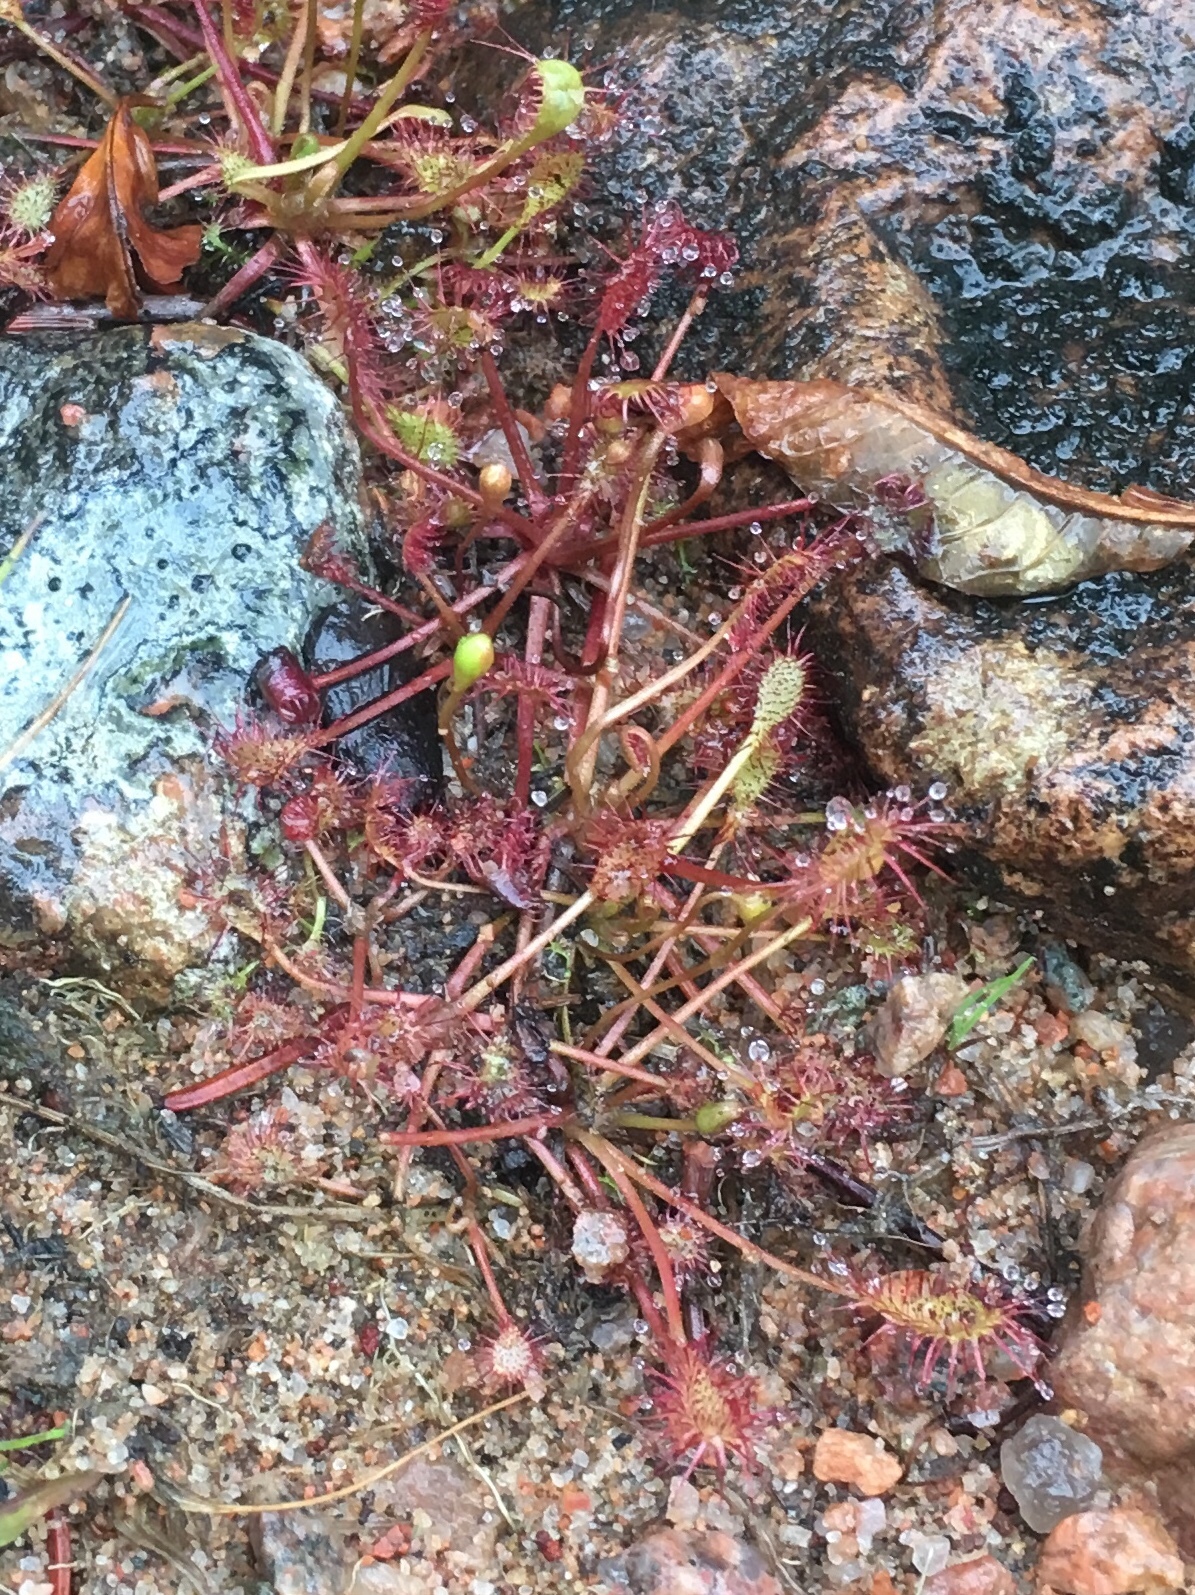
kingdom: Plantae
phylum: Tracheophyta
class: Magnoliopsida
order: Caryophyllales
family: Droseraceae
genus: Drosera
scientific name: Drosera intermedia
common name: Oblong-leaved sundew
